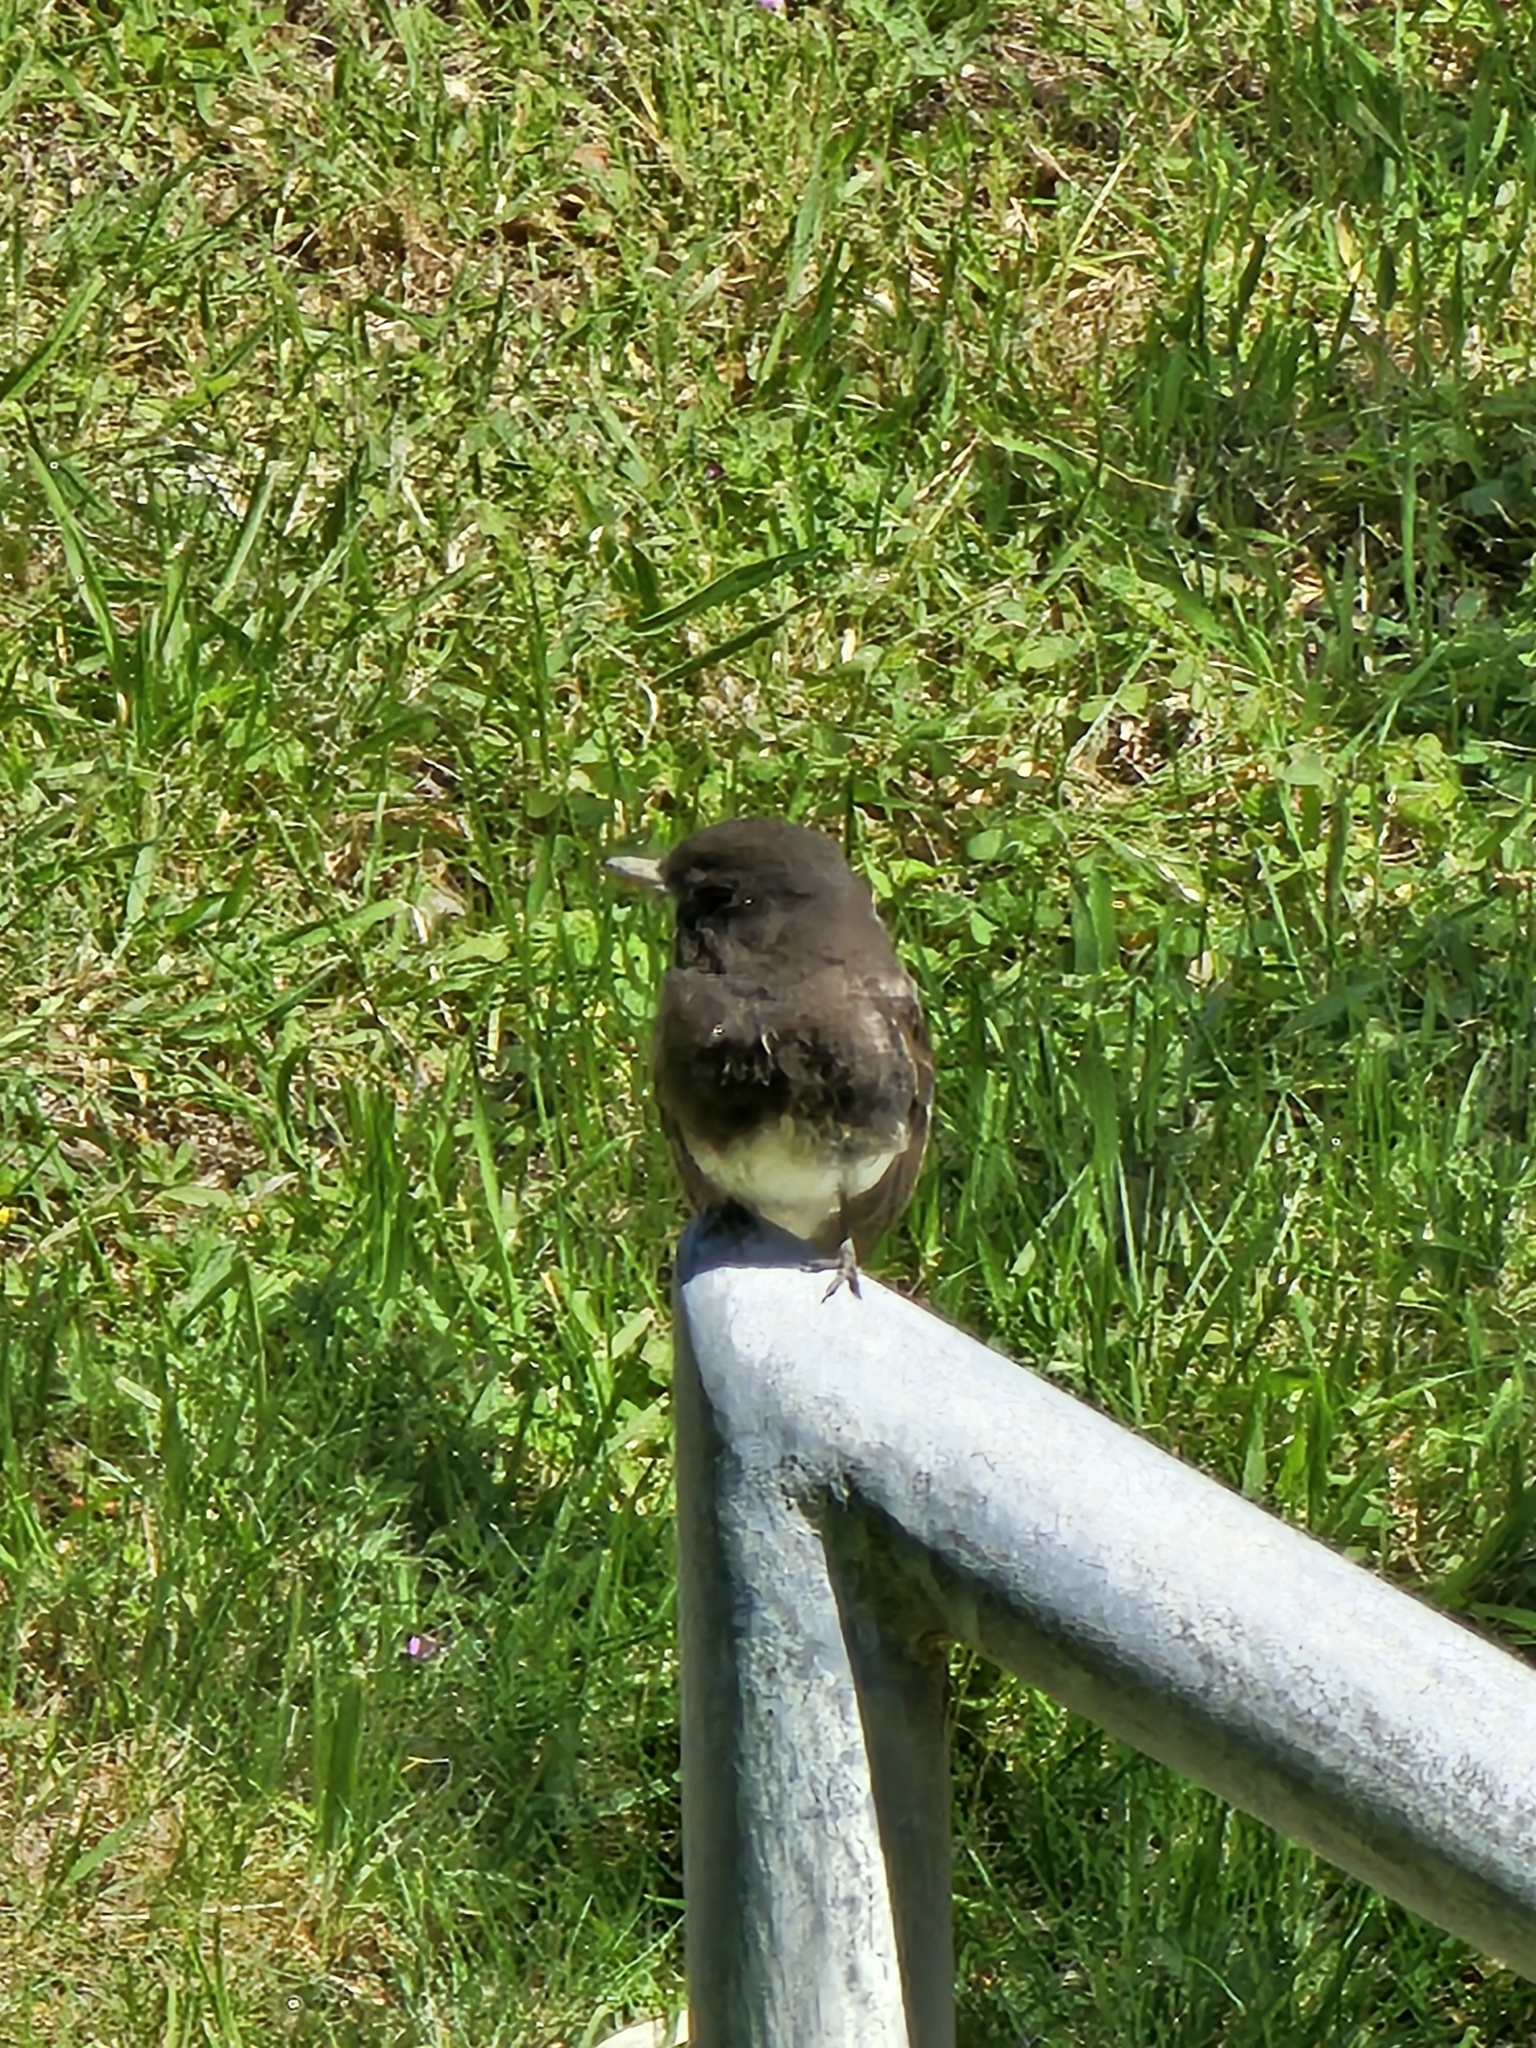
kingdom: Animalia
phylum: Chordata
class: Aves
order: Passeriformes
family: Tyrannidae
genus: Sayornis
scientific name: Sayornis nigricans
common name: Black phoebe
